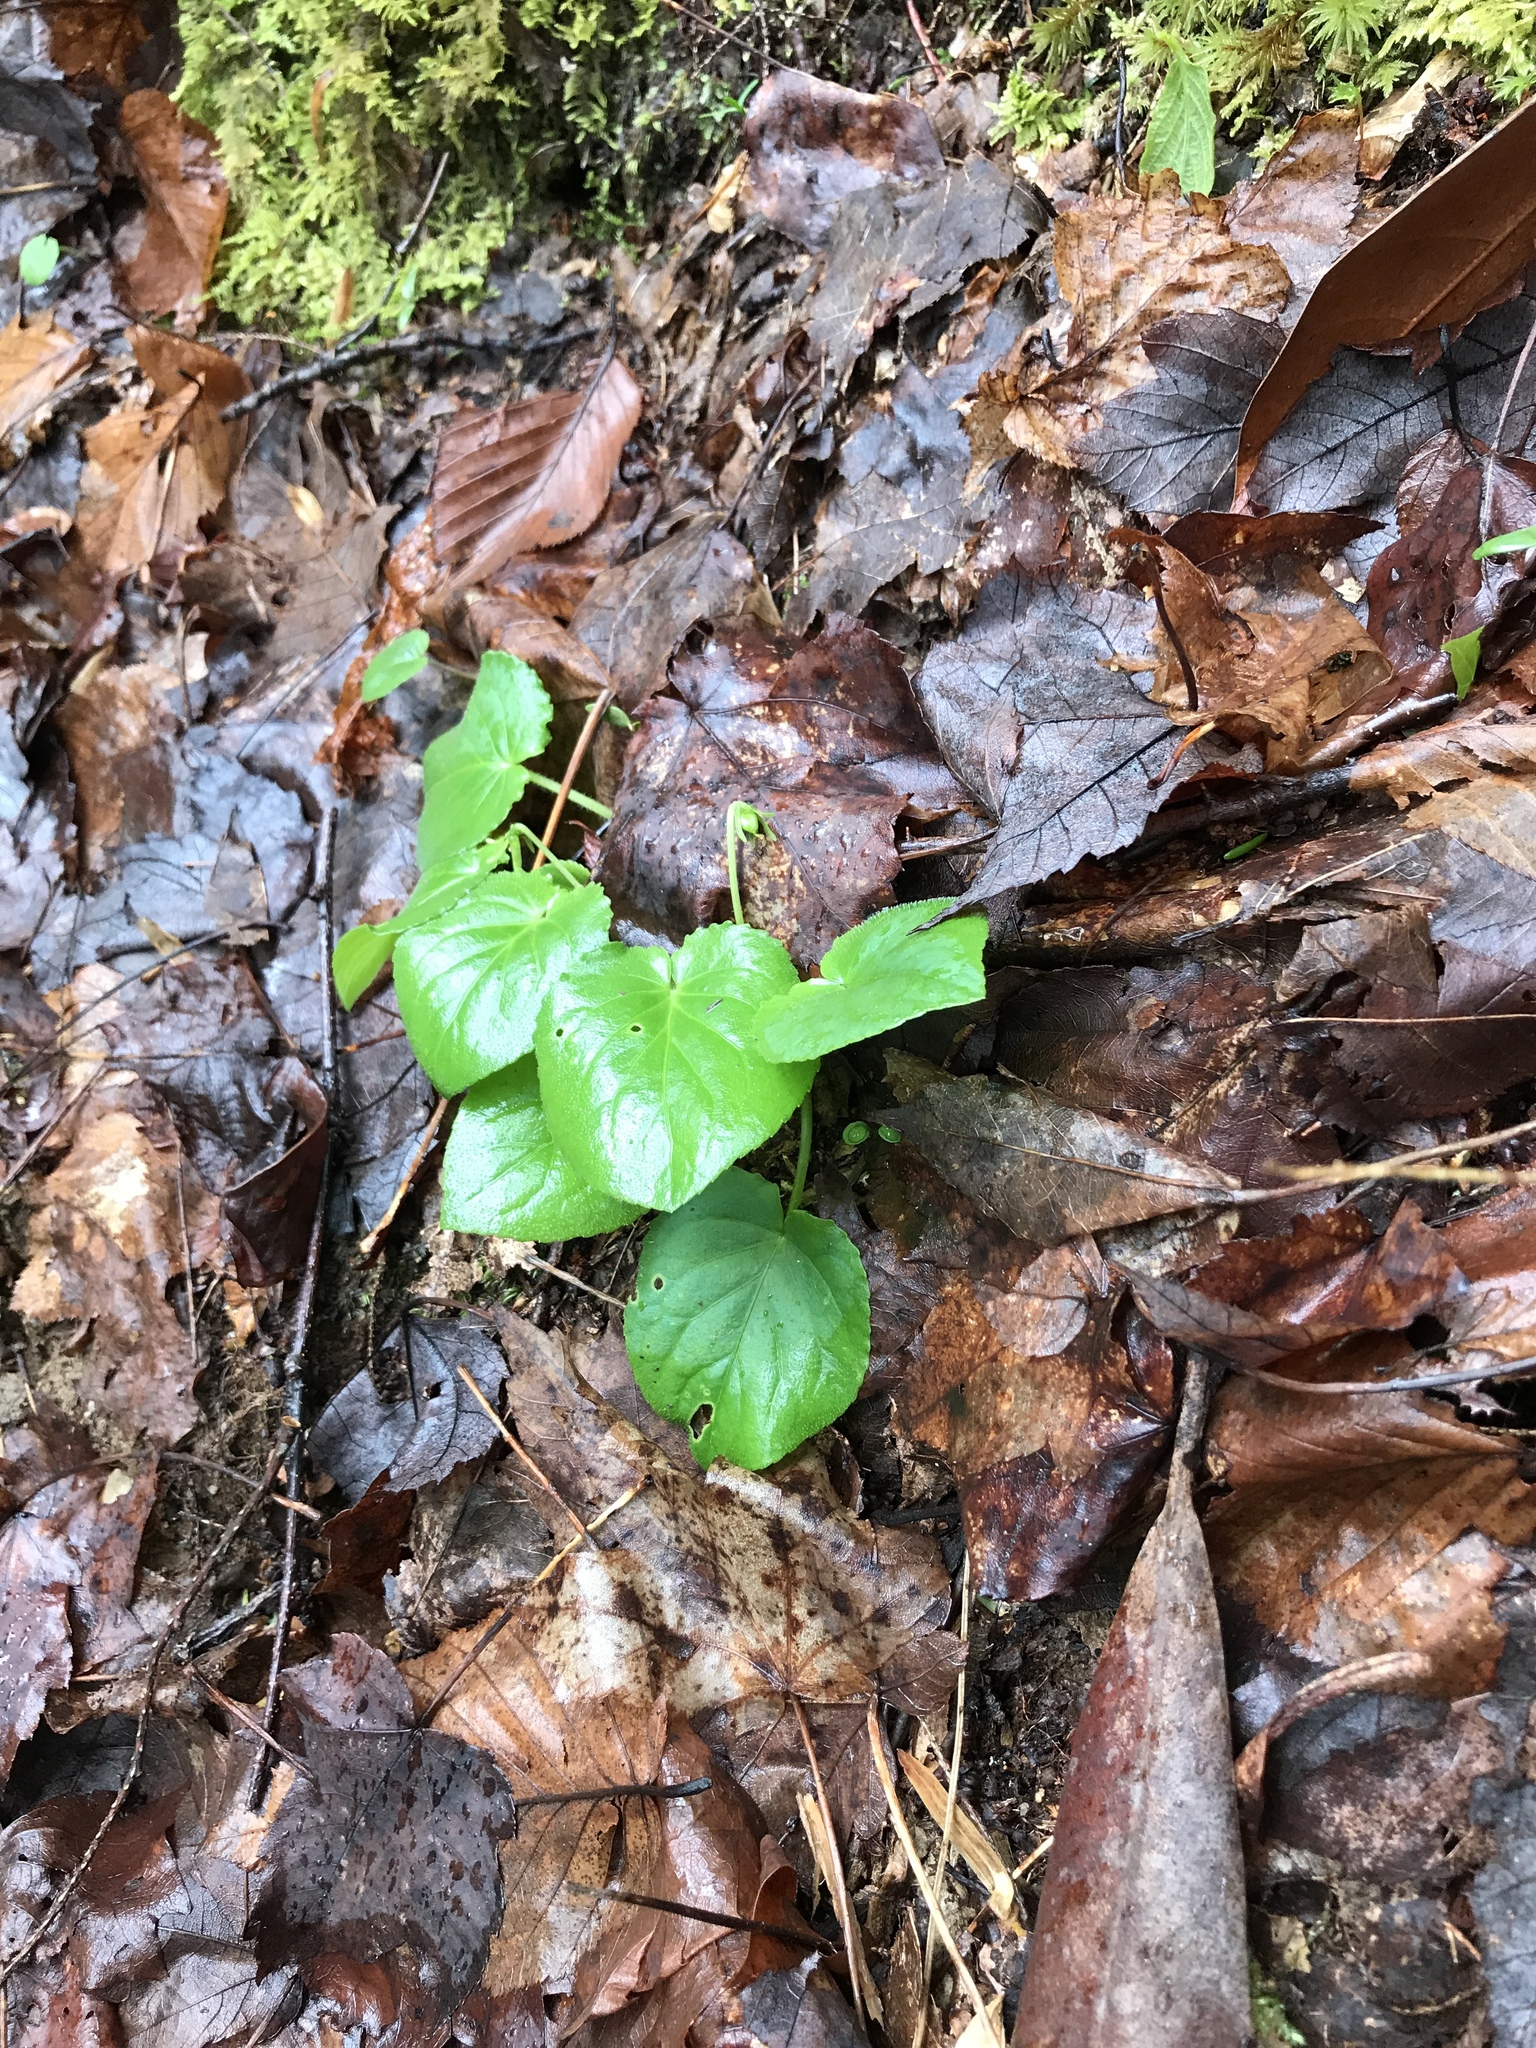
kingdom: Plantae
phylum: Tracheophyta
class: Magnoliopsida
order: Malpighiales
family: Violaceae
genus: Viola
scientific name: Viola rotundifolia
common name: Early yellow violet
